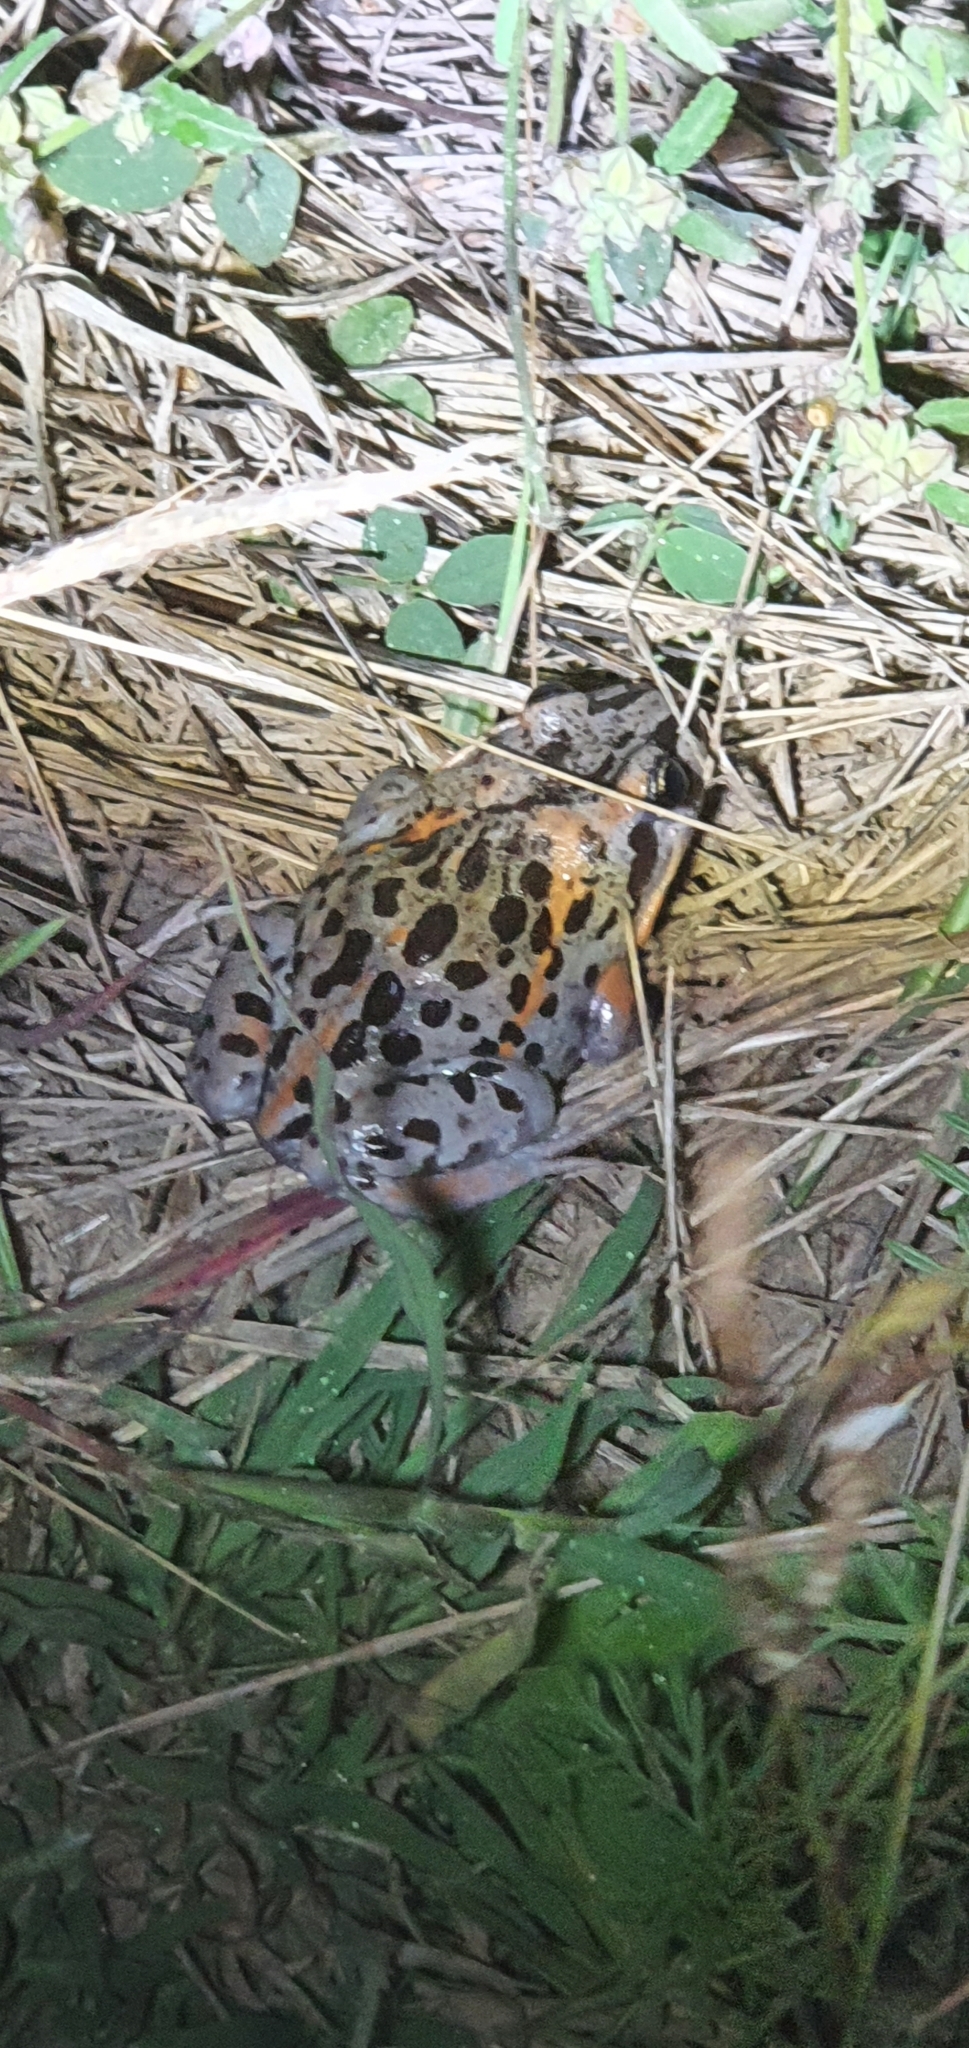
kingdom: Animalia
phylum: Chordata
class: Amphibia
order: Anura
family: Limnodynastidae
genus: Limnodynastes
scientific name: Limnodynastes salmini
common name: Salmon-striped frog
